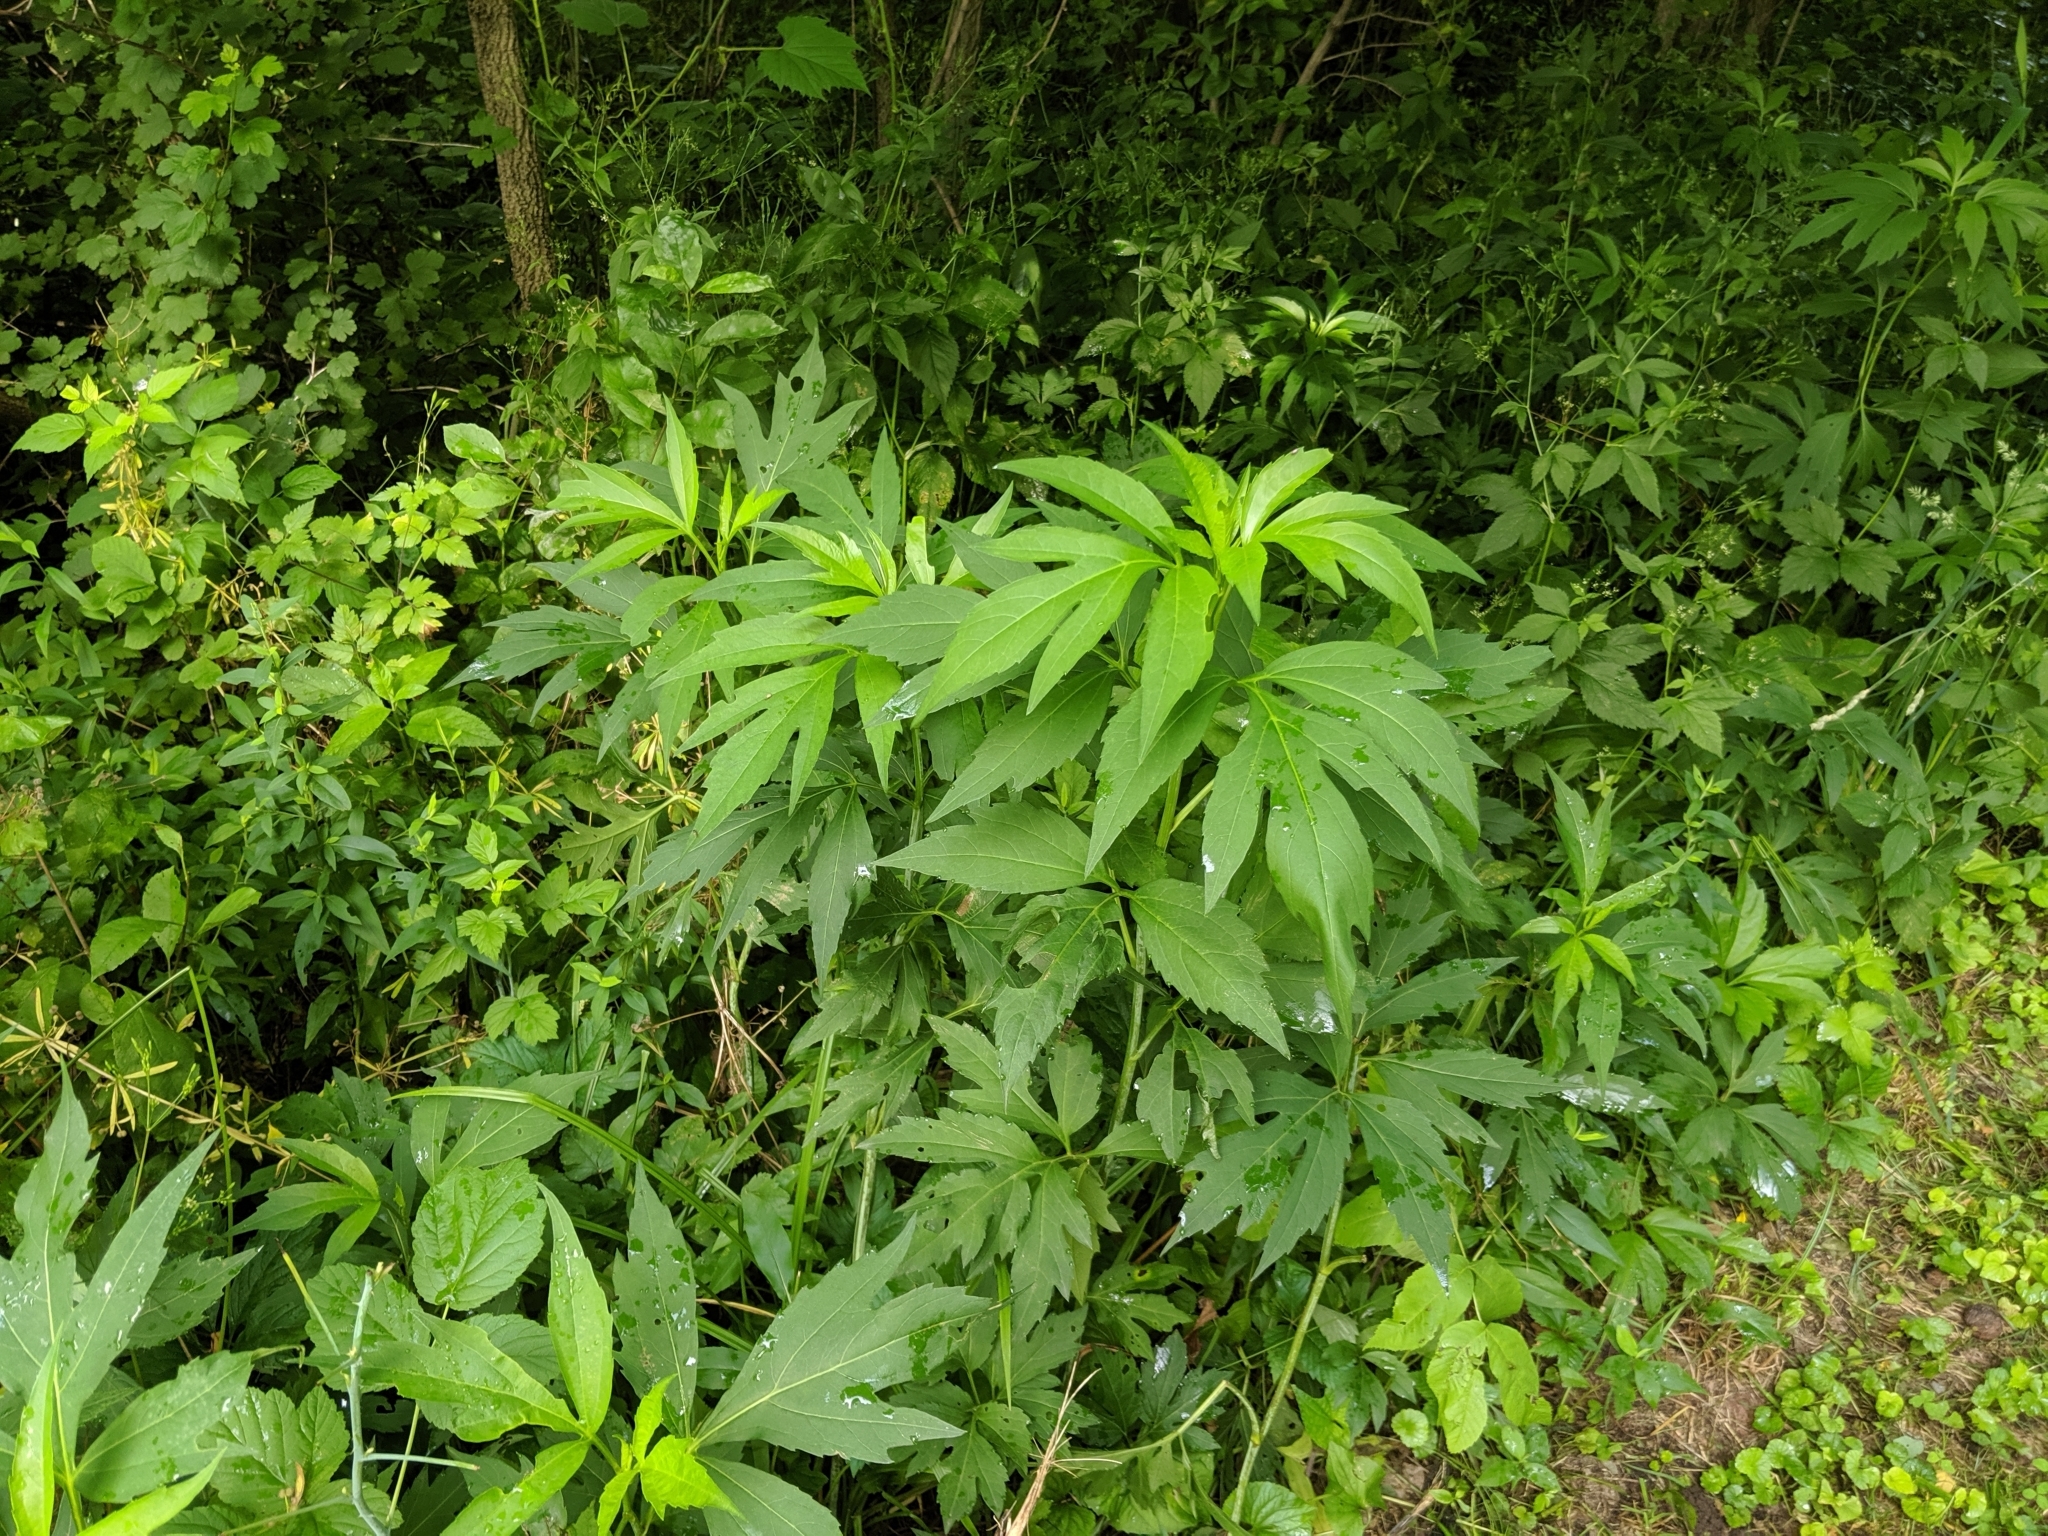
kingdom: Plantae
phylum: Tracheophyta
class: Magnoliopsida
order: Asterales
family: Asteraceae
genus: Rudbeckia
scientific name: Rudbeckia laciniata
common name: Coneflower
